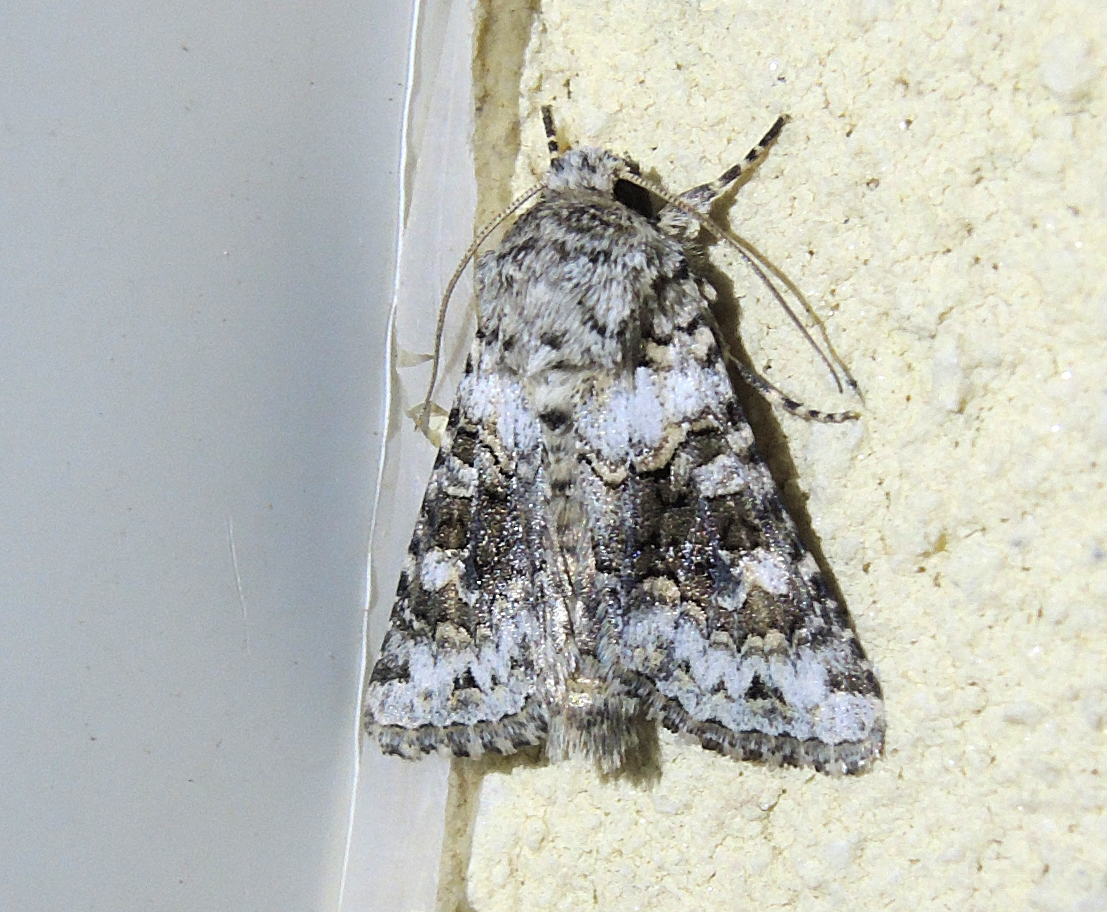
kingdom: Animalia
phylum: Arthropoda
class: Insecta
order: Lepidoptera
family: Noctuidae
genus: Hecatera
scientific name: Hecatera bicolorata
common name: Broad-barred white
